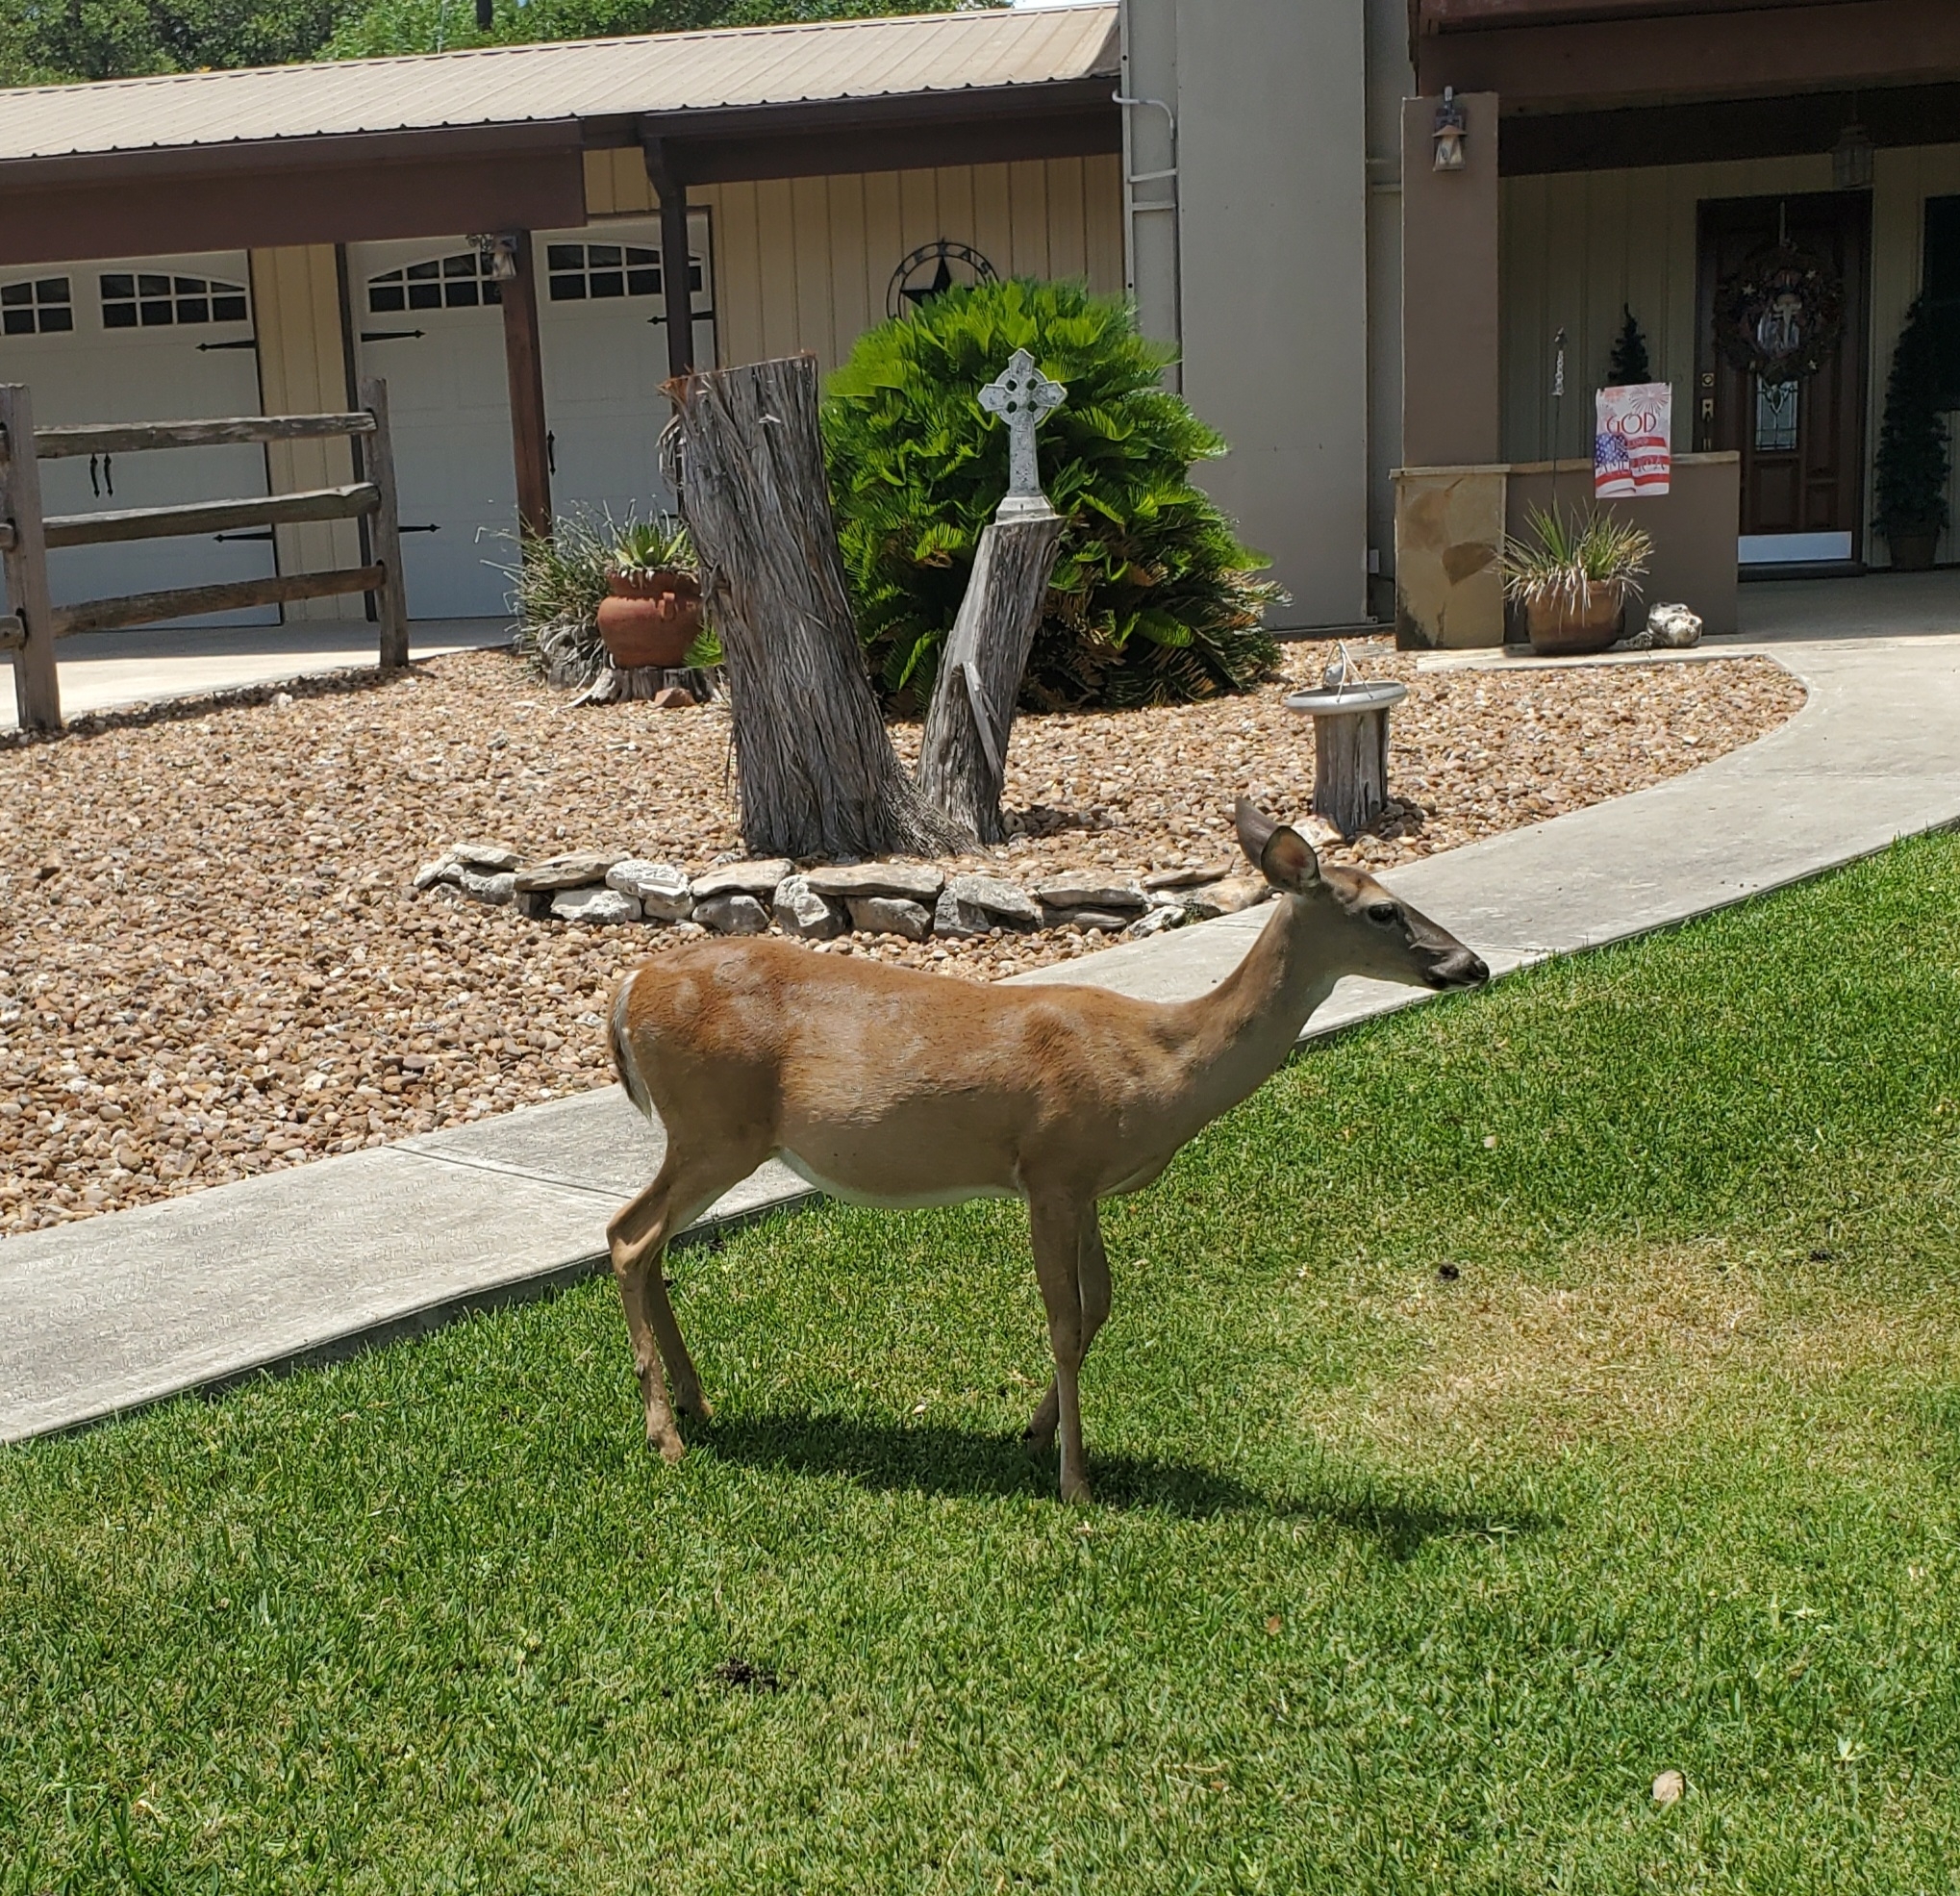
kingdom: Animalia
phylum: Chordata
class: Mammalia
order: Artiodactyla
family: Cervidae
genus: Odocoileus
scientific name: Odocoileus virginianus
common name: White-tailed deer
